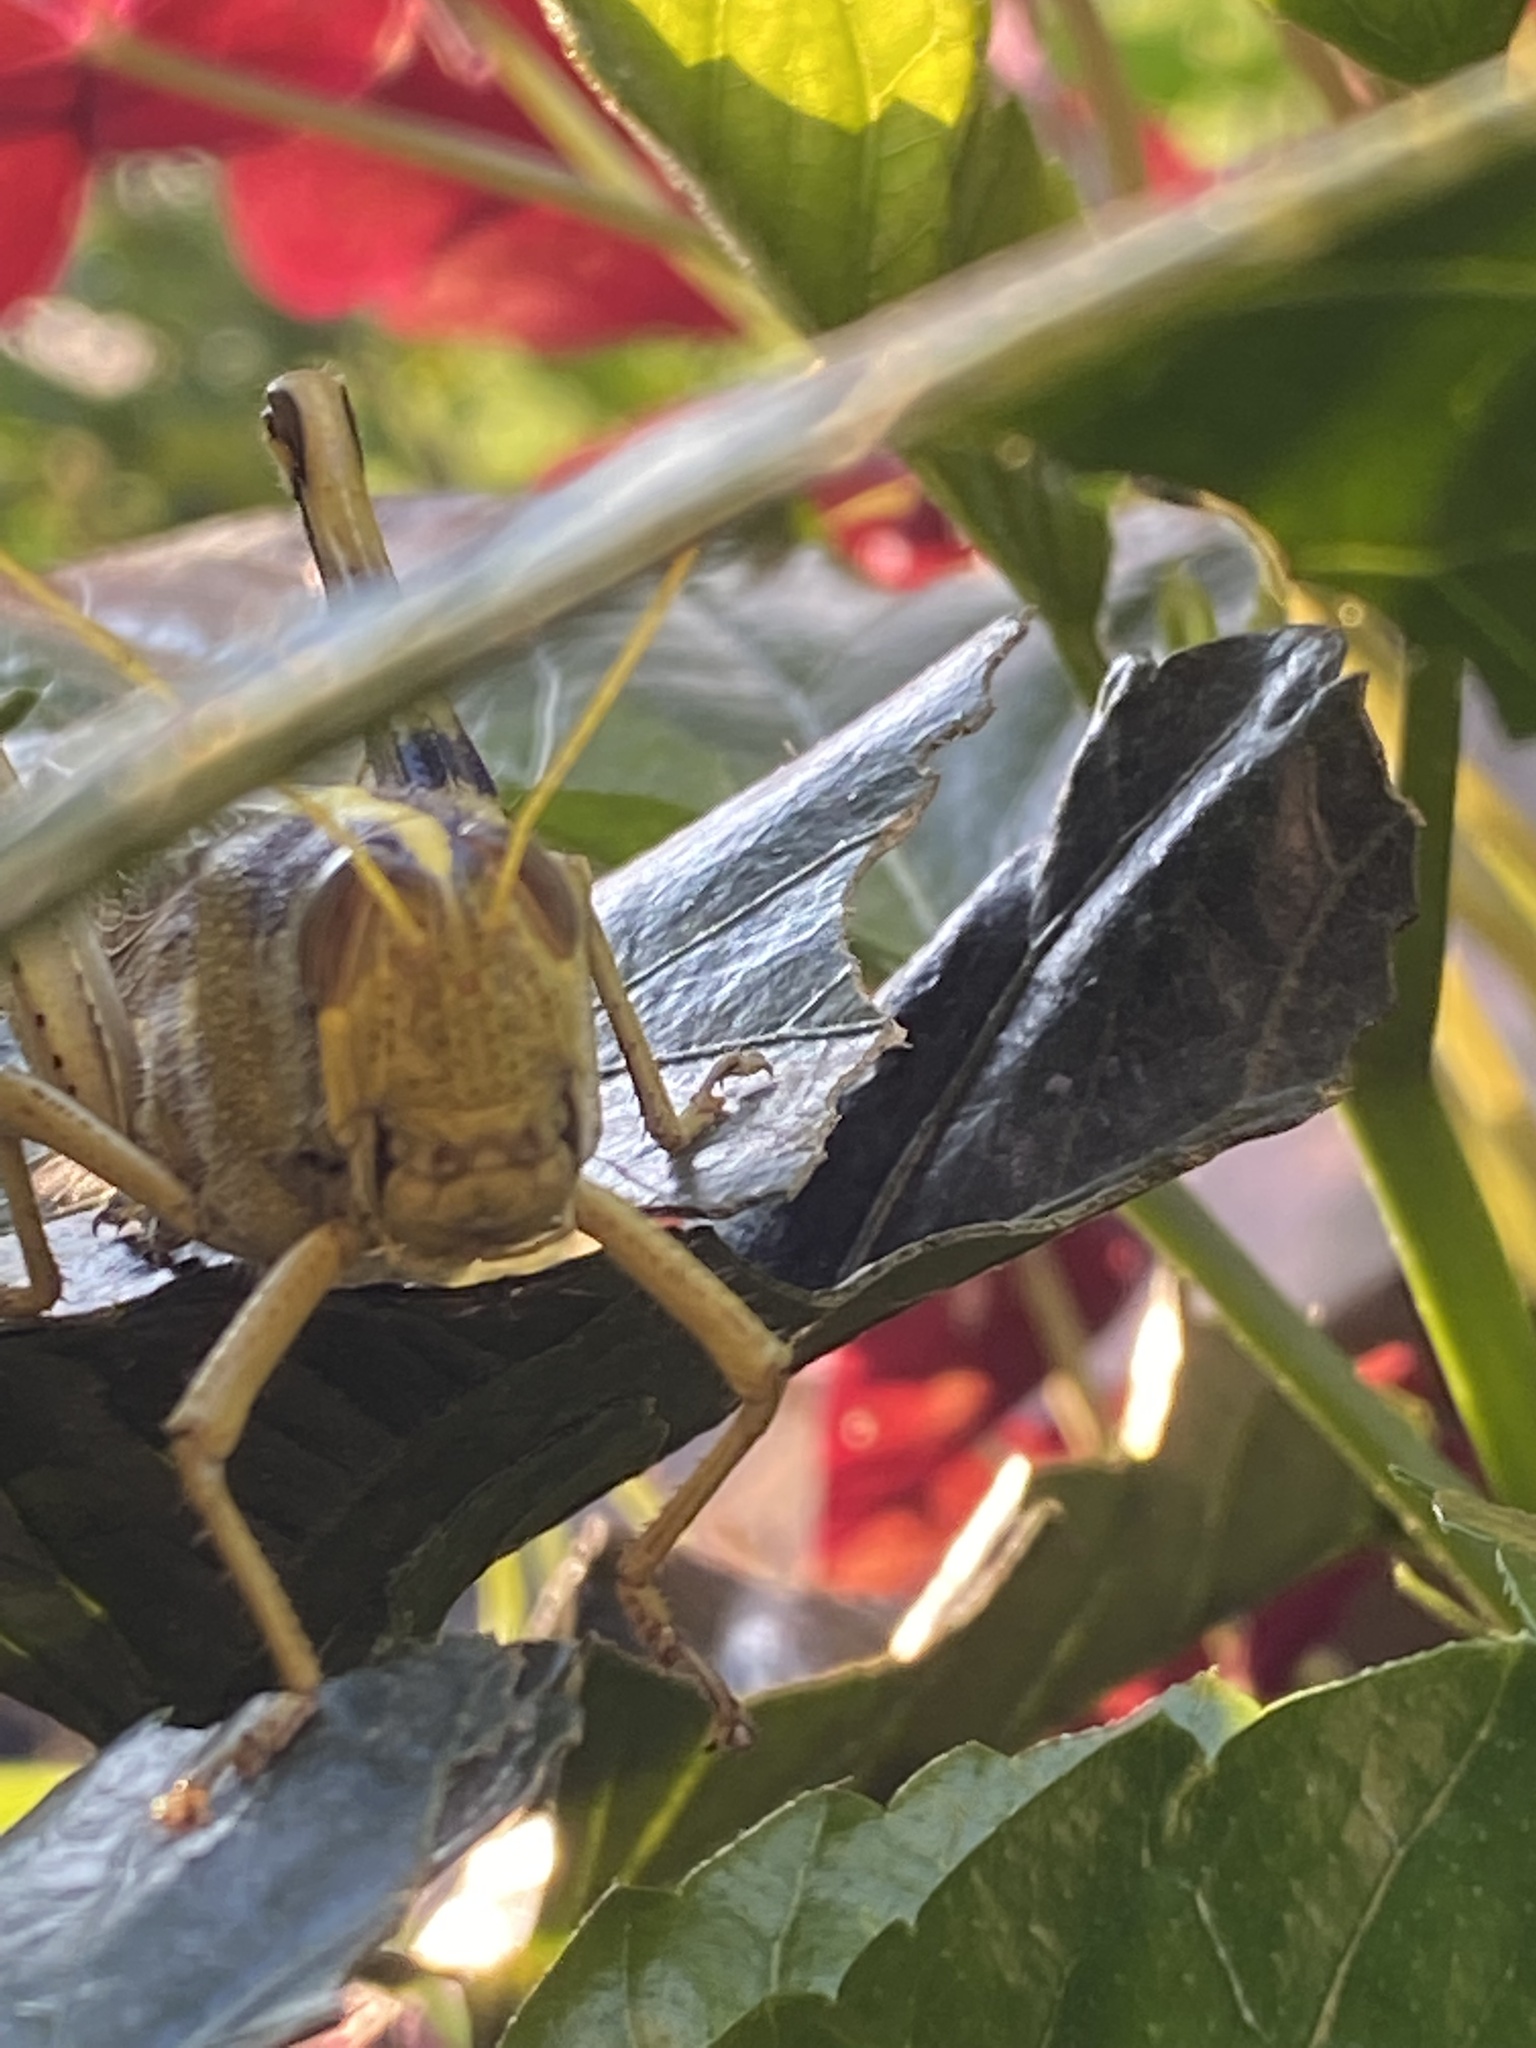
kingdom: Animalia
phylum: Arthropoda
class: Insecta
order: Orthoptera
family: Acrididae
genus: Schistocerca
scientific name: Schistocerca obscura
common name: Obscure bird grasshopper
